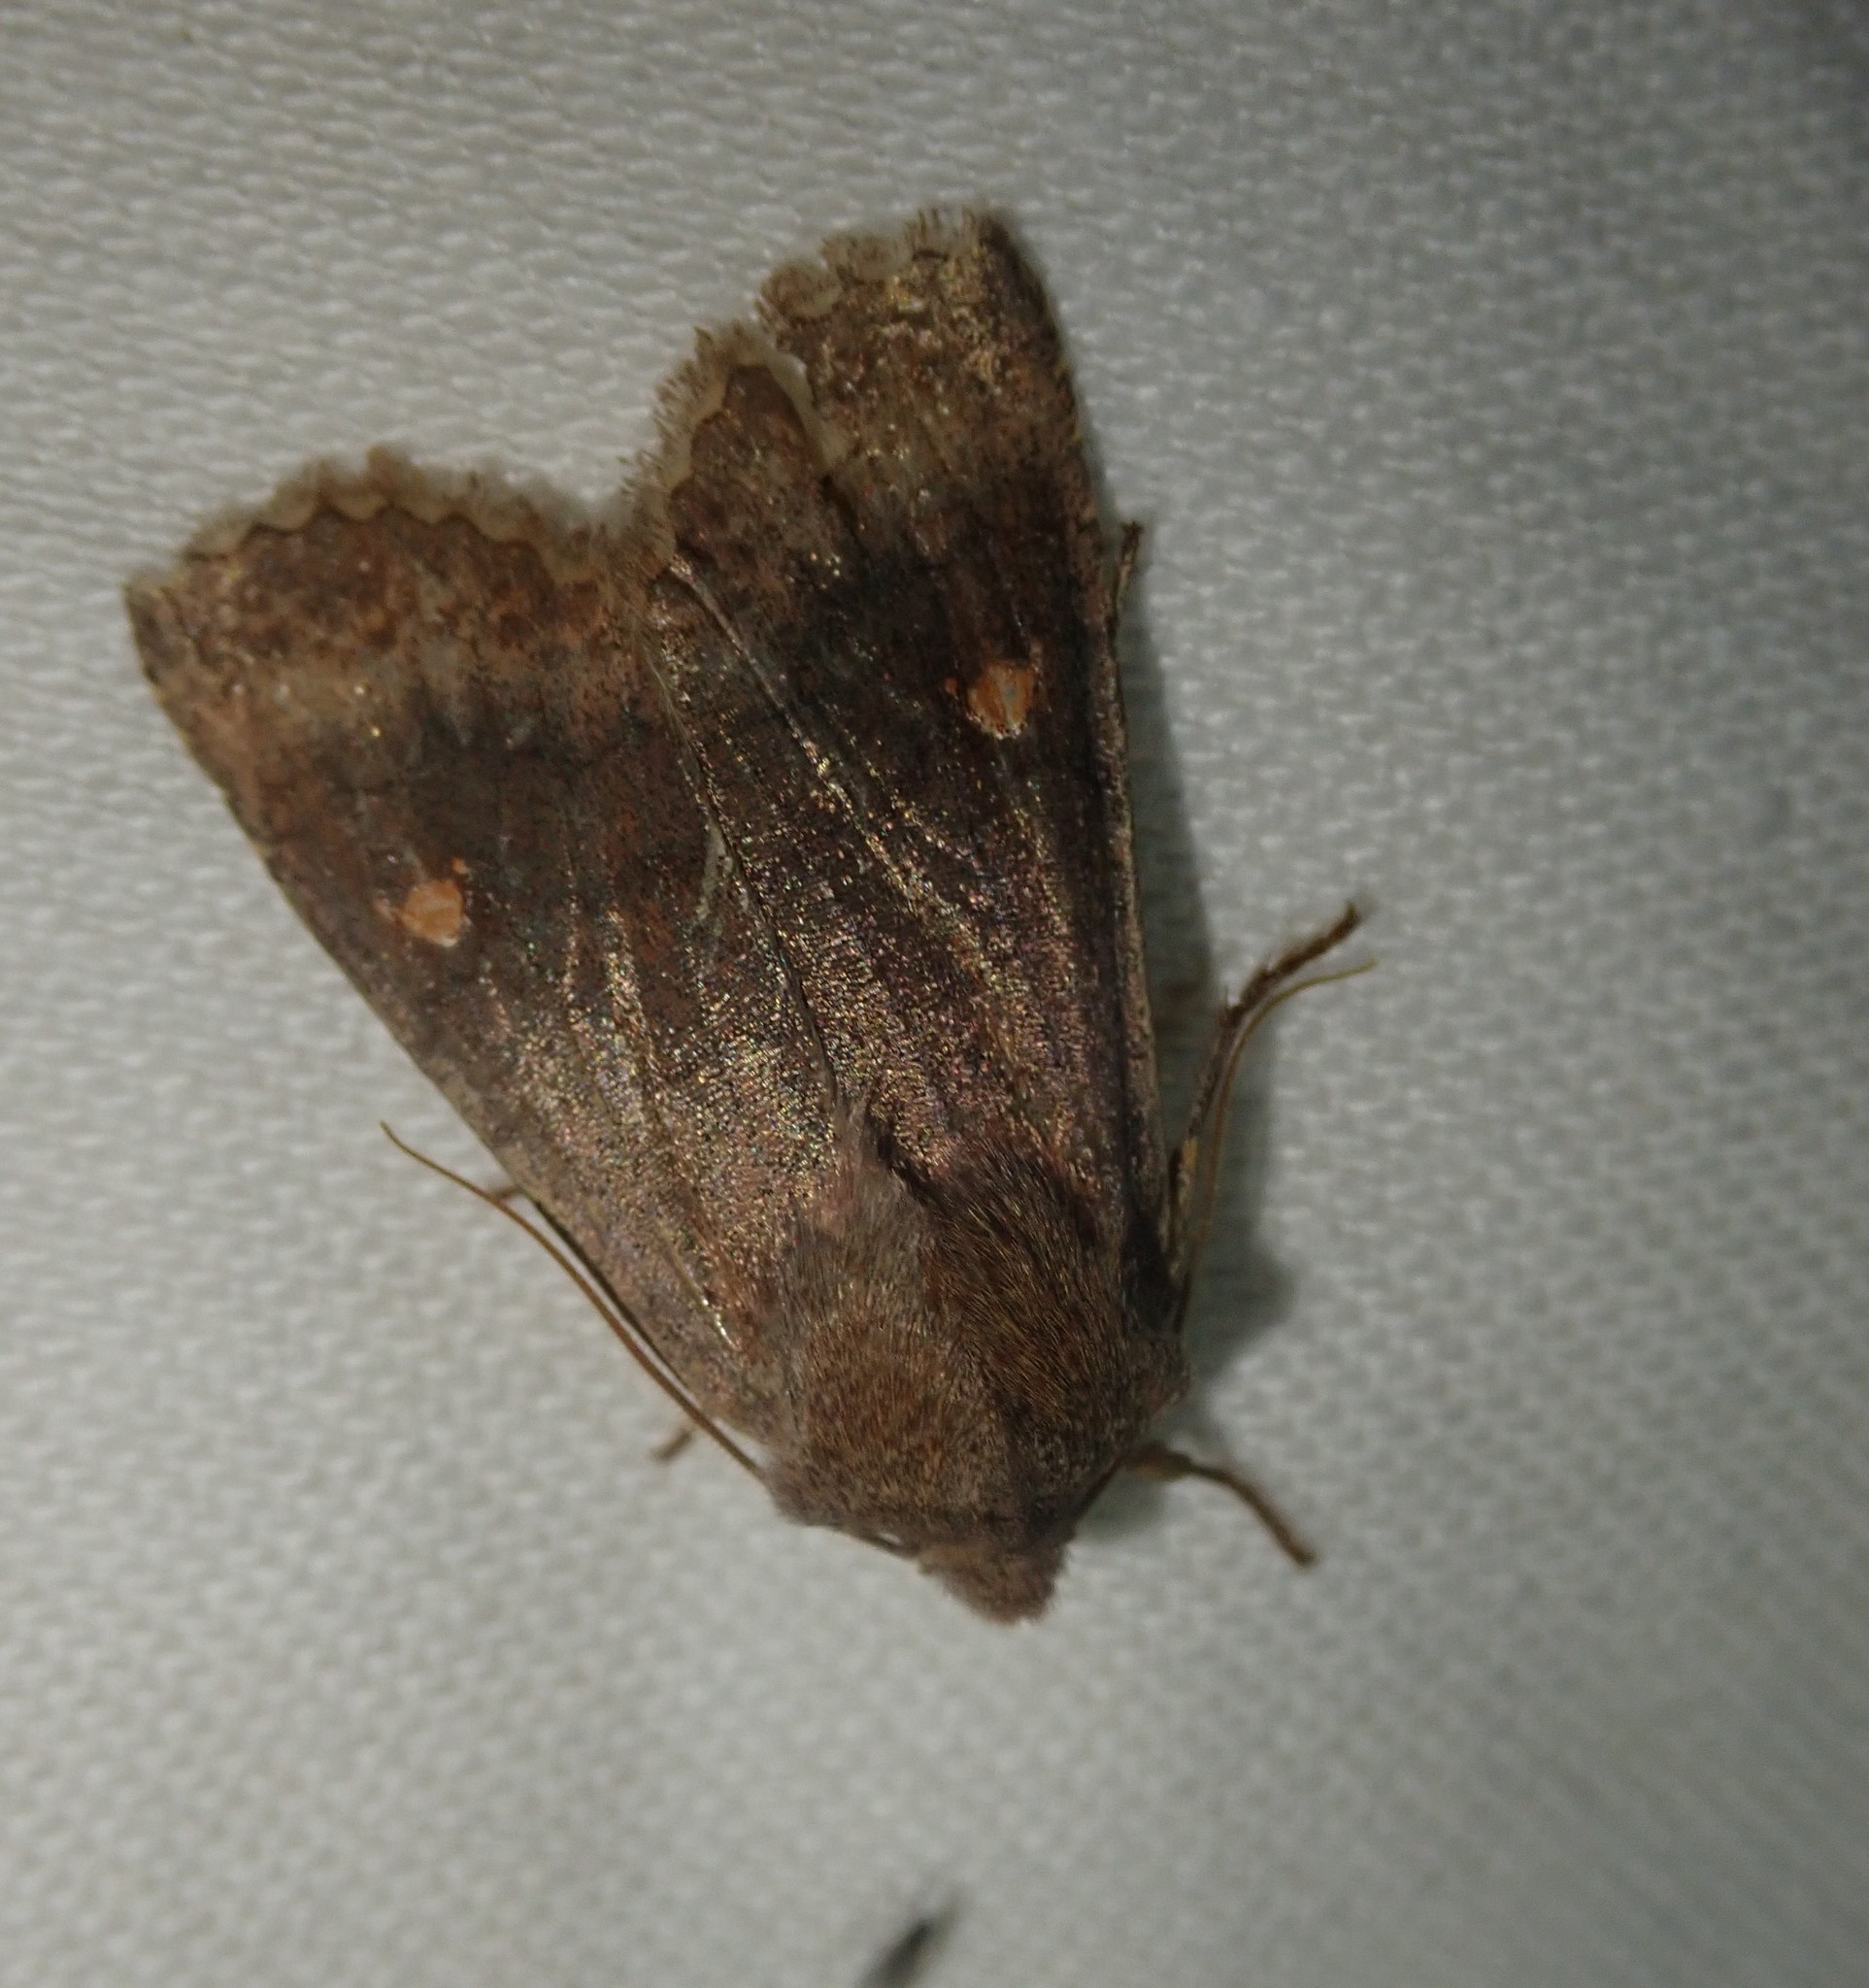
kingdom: Animalia
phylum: Arthropoda
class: Insecta
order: Lepidoptera
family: Noctuidae
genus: Eupsilia
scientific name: Eupsilia transversa
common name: Satellite
